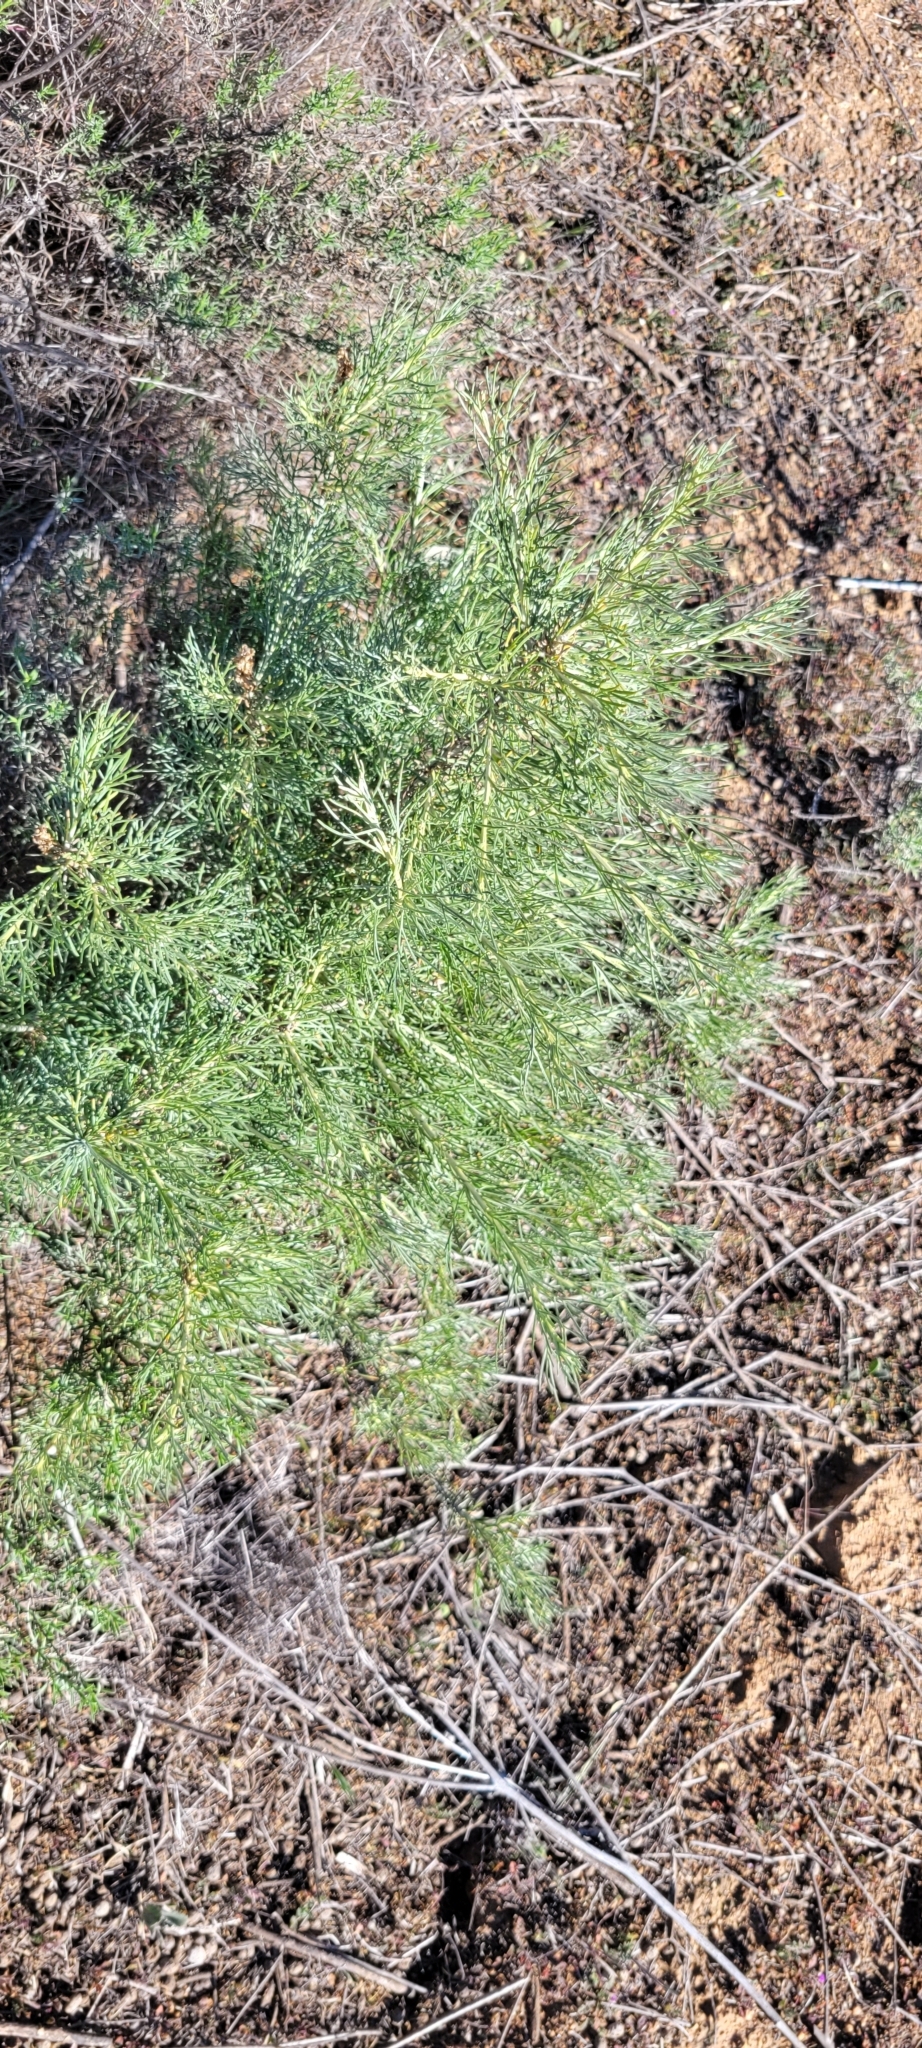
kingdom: Plantae
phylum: Tracheophyta
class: Magnoliopsida
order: Asterales
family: Asteraceae
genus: Artemisia
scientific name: Artemisia californica
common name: California sagebrush
